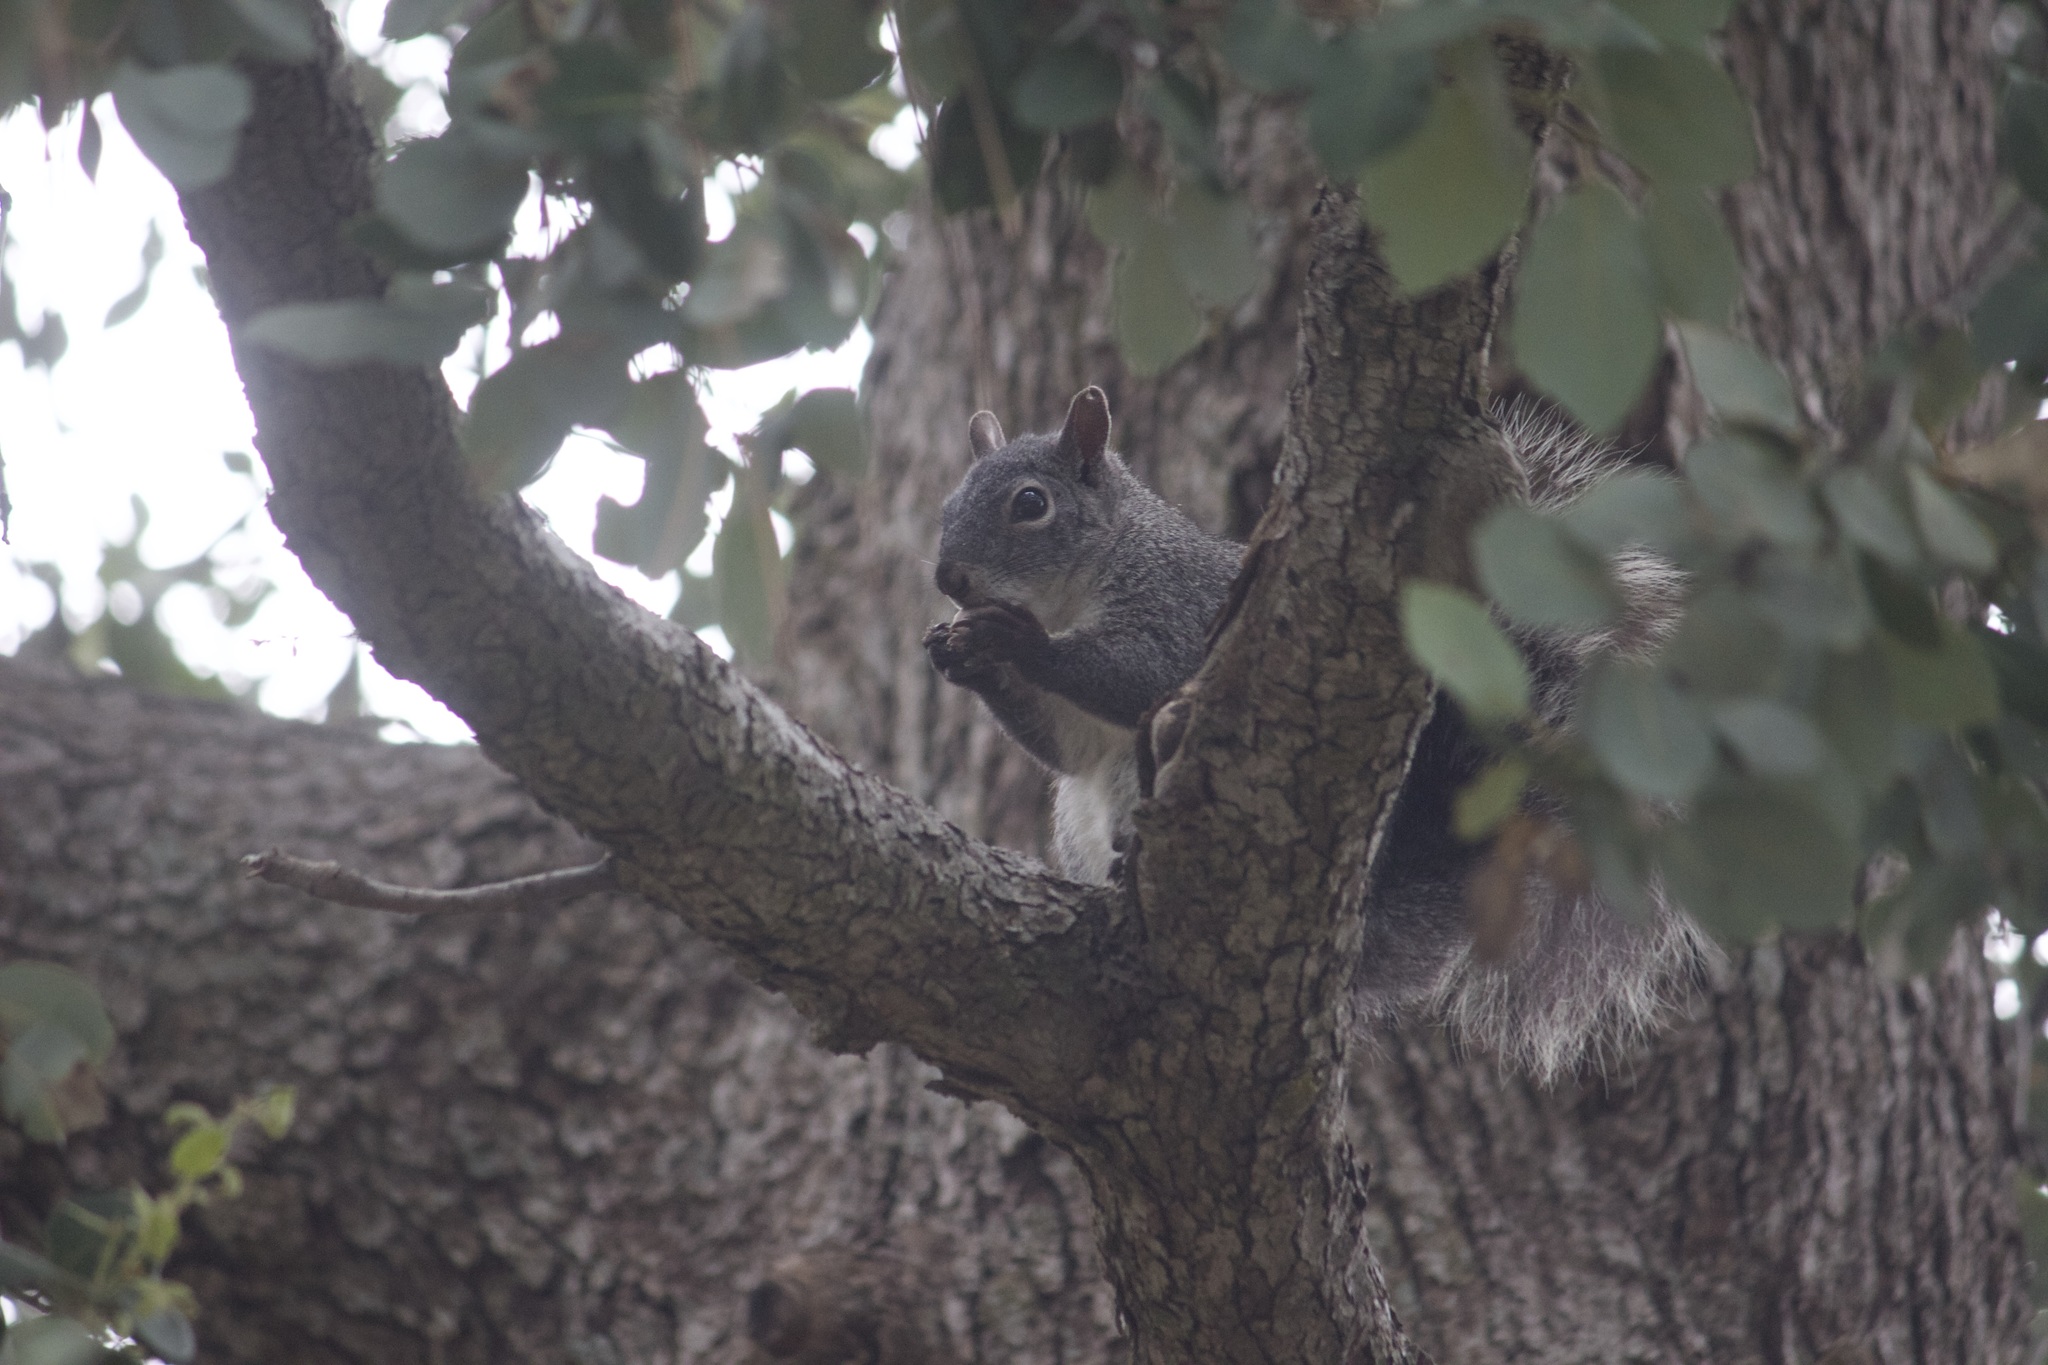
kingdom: Animalia
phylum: Chordata
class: Mammalia
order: Rodentia
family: Sciuridae
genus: Sciurus
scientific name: Sciurus griseus
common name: Western gray squirrel
